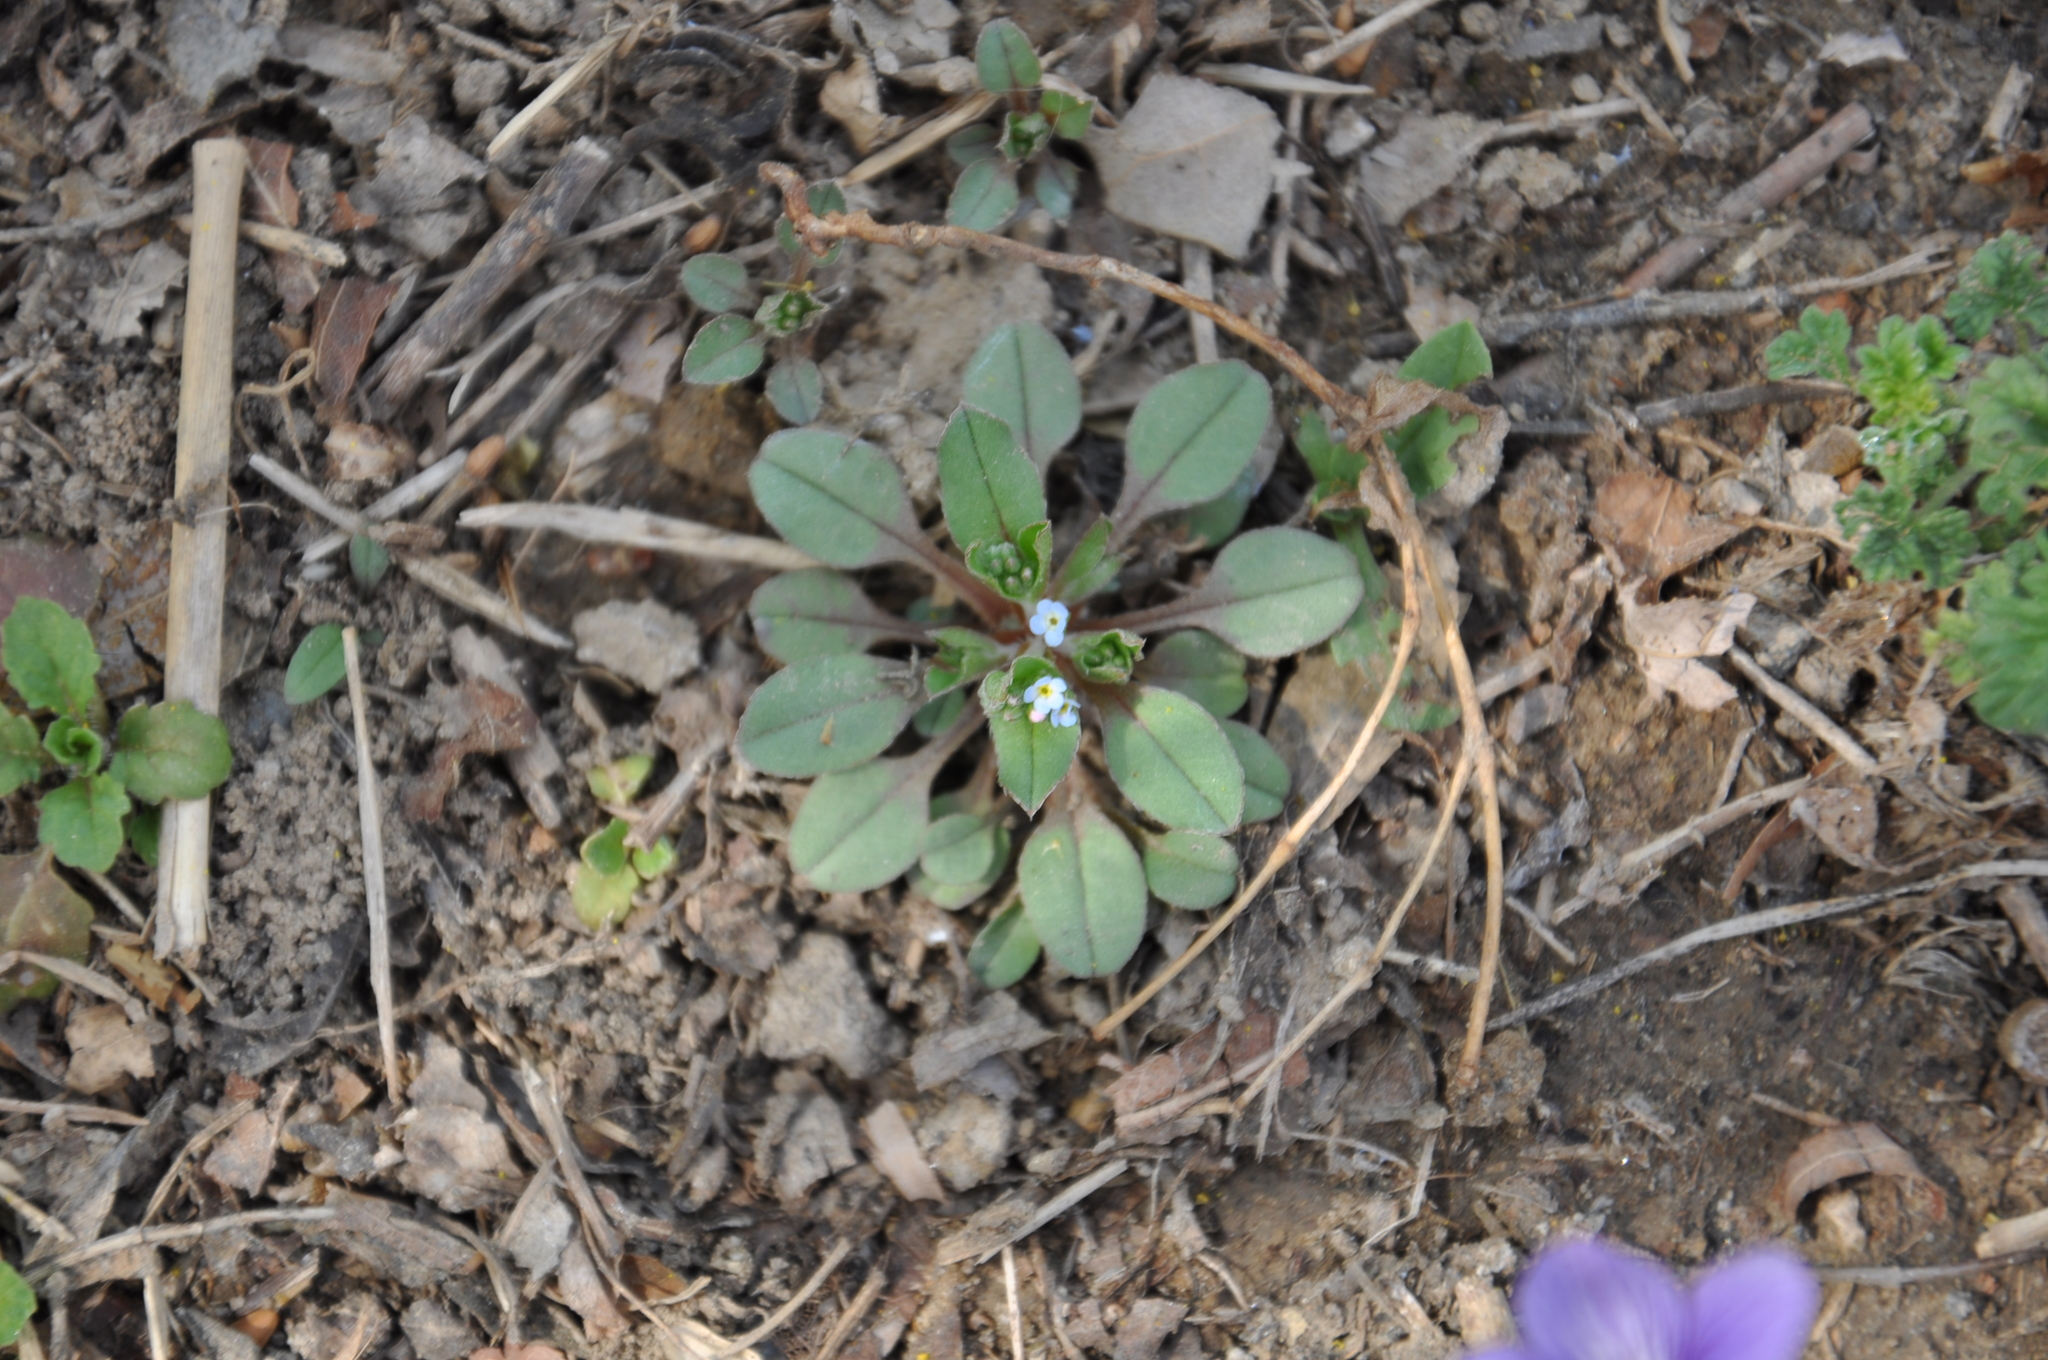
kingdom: Plantae
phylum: Tracheophyta
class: Magnoliopsida
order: Boraginales
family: Boraginaceae
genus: Trigonotis
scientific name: Trigonotis peduncularis
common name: Cucumber herb
